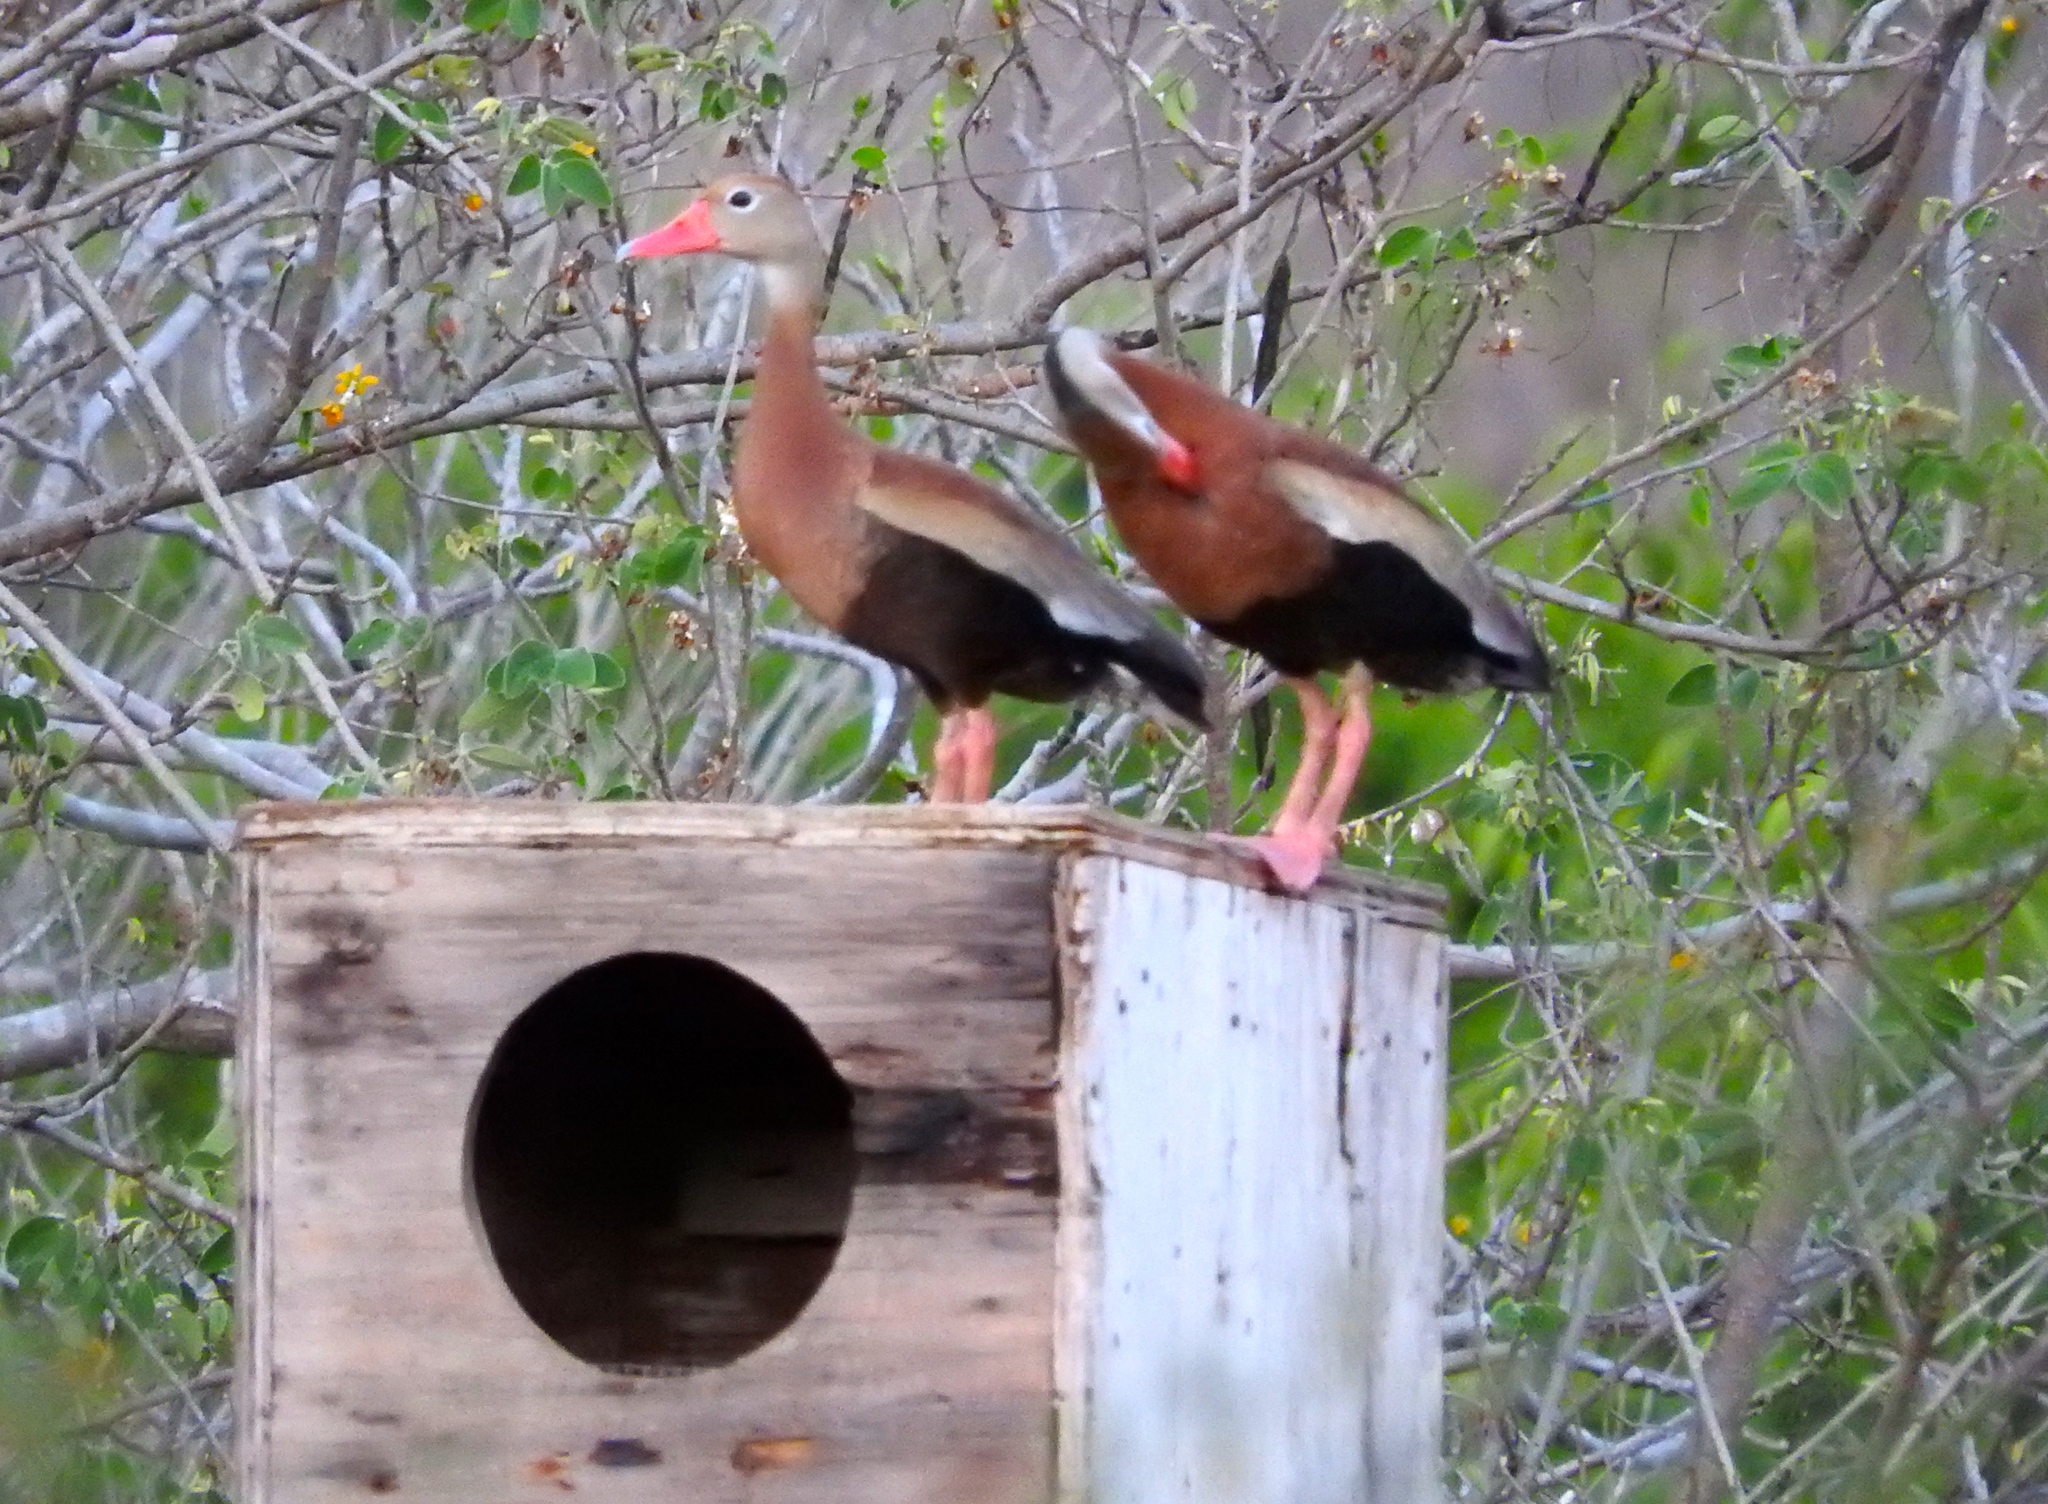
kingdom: Animalia
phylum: Chordata
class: Aves
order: Anseriformes
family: Anatidae
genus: Dendrocygna
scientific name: Dendrocygna autumnalis
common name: Black-bellied whistling duck
